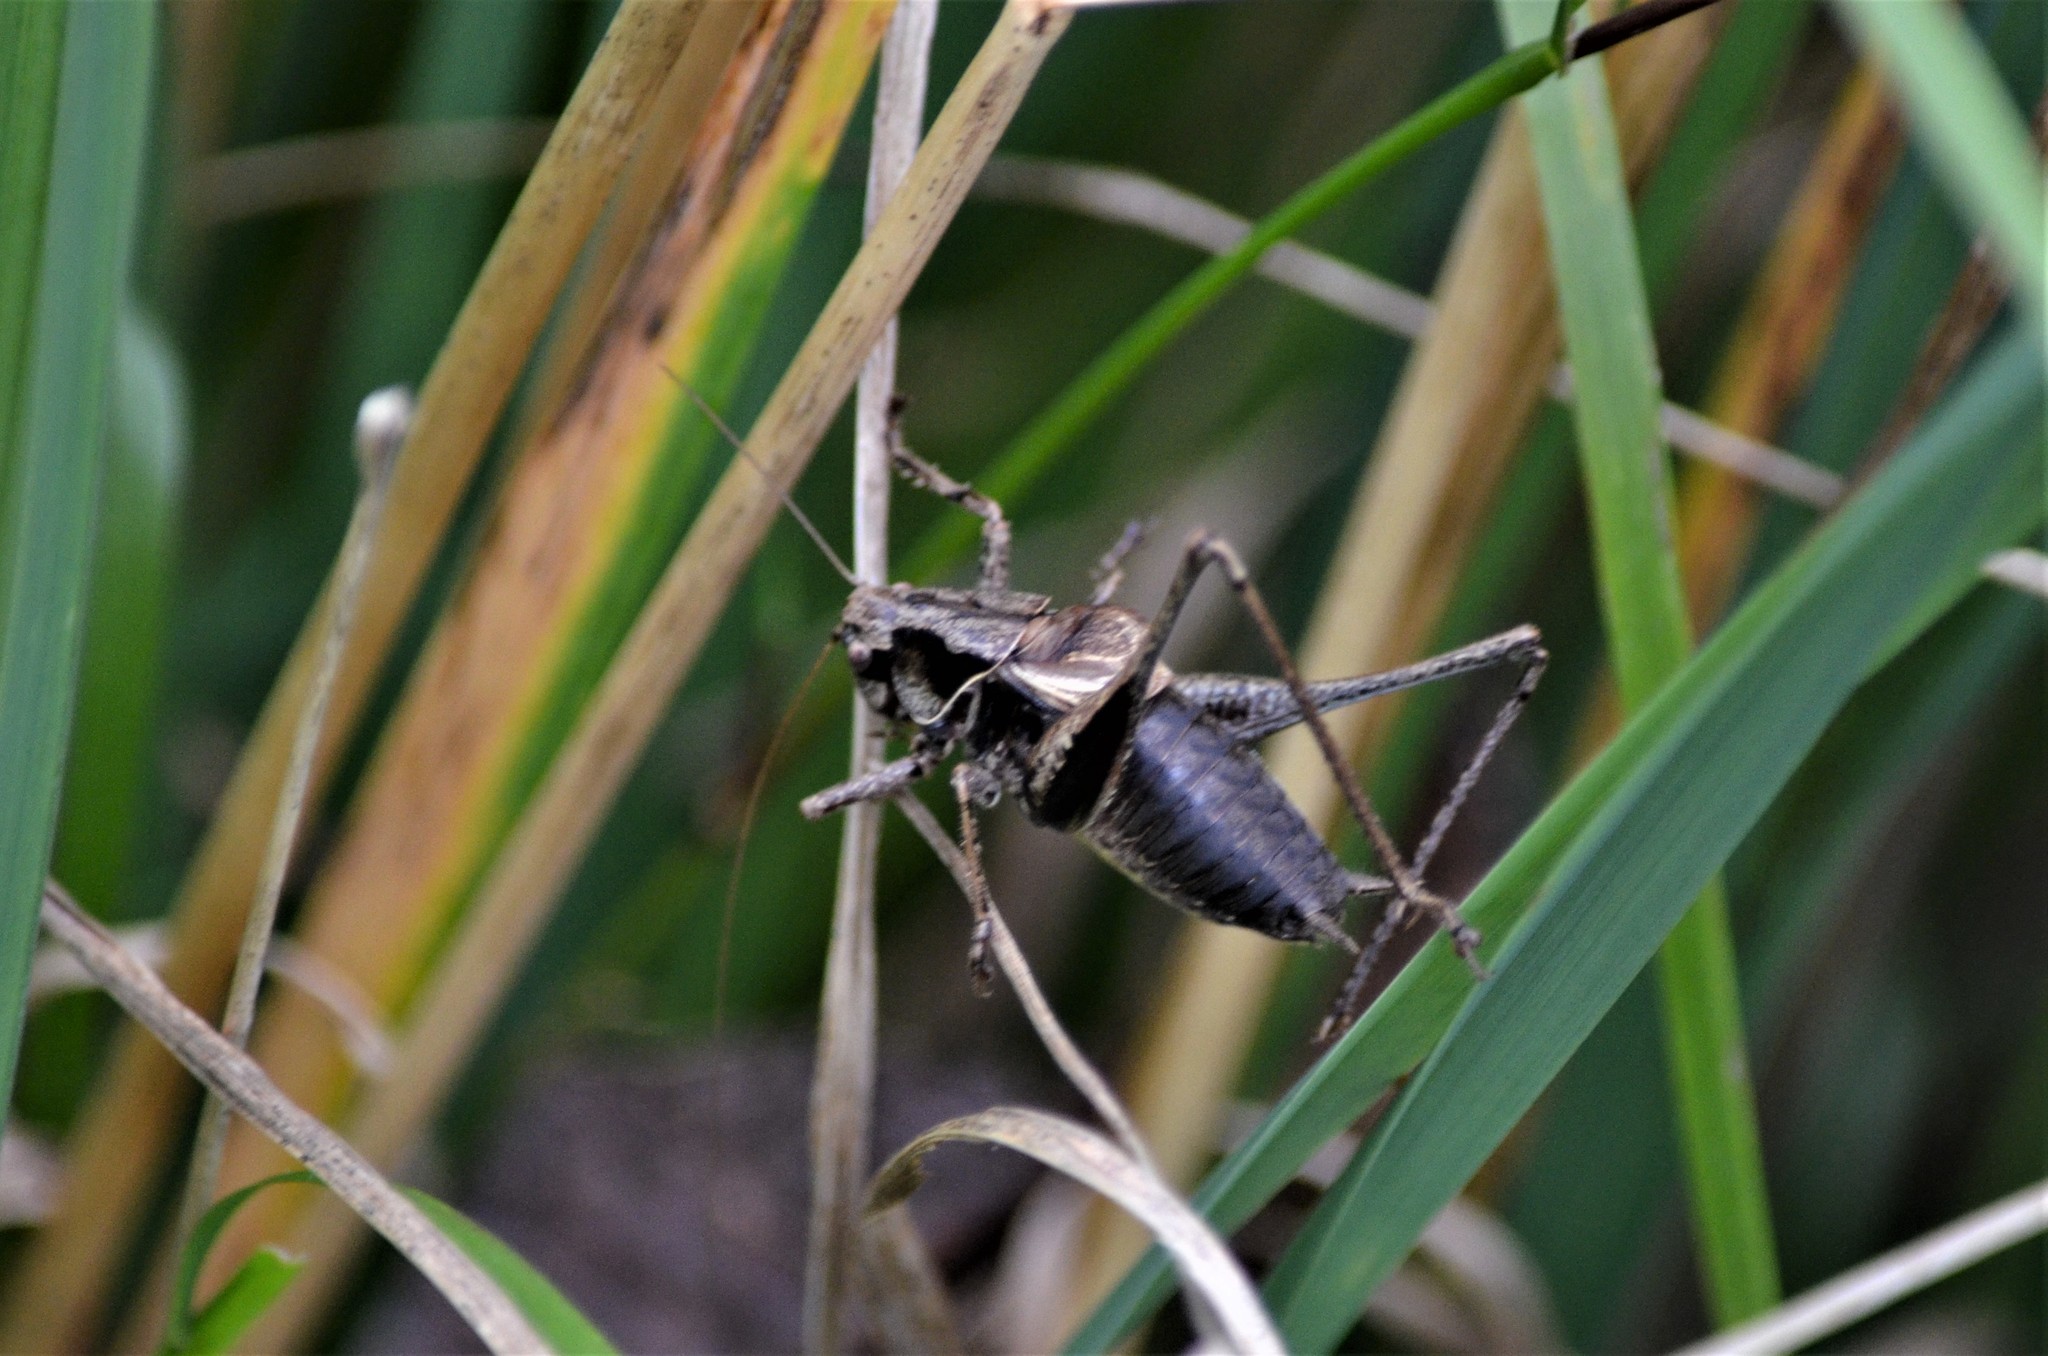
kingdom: Animalia
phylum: Arthropoda
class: Insecta
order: Orthoptera
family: Tettigoniidae
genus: Pholidoptera
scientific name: Pholidoptera griseoaptera
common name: Dark bush-cricket
